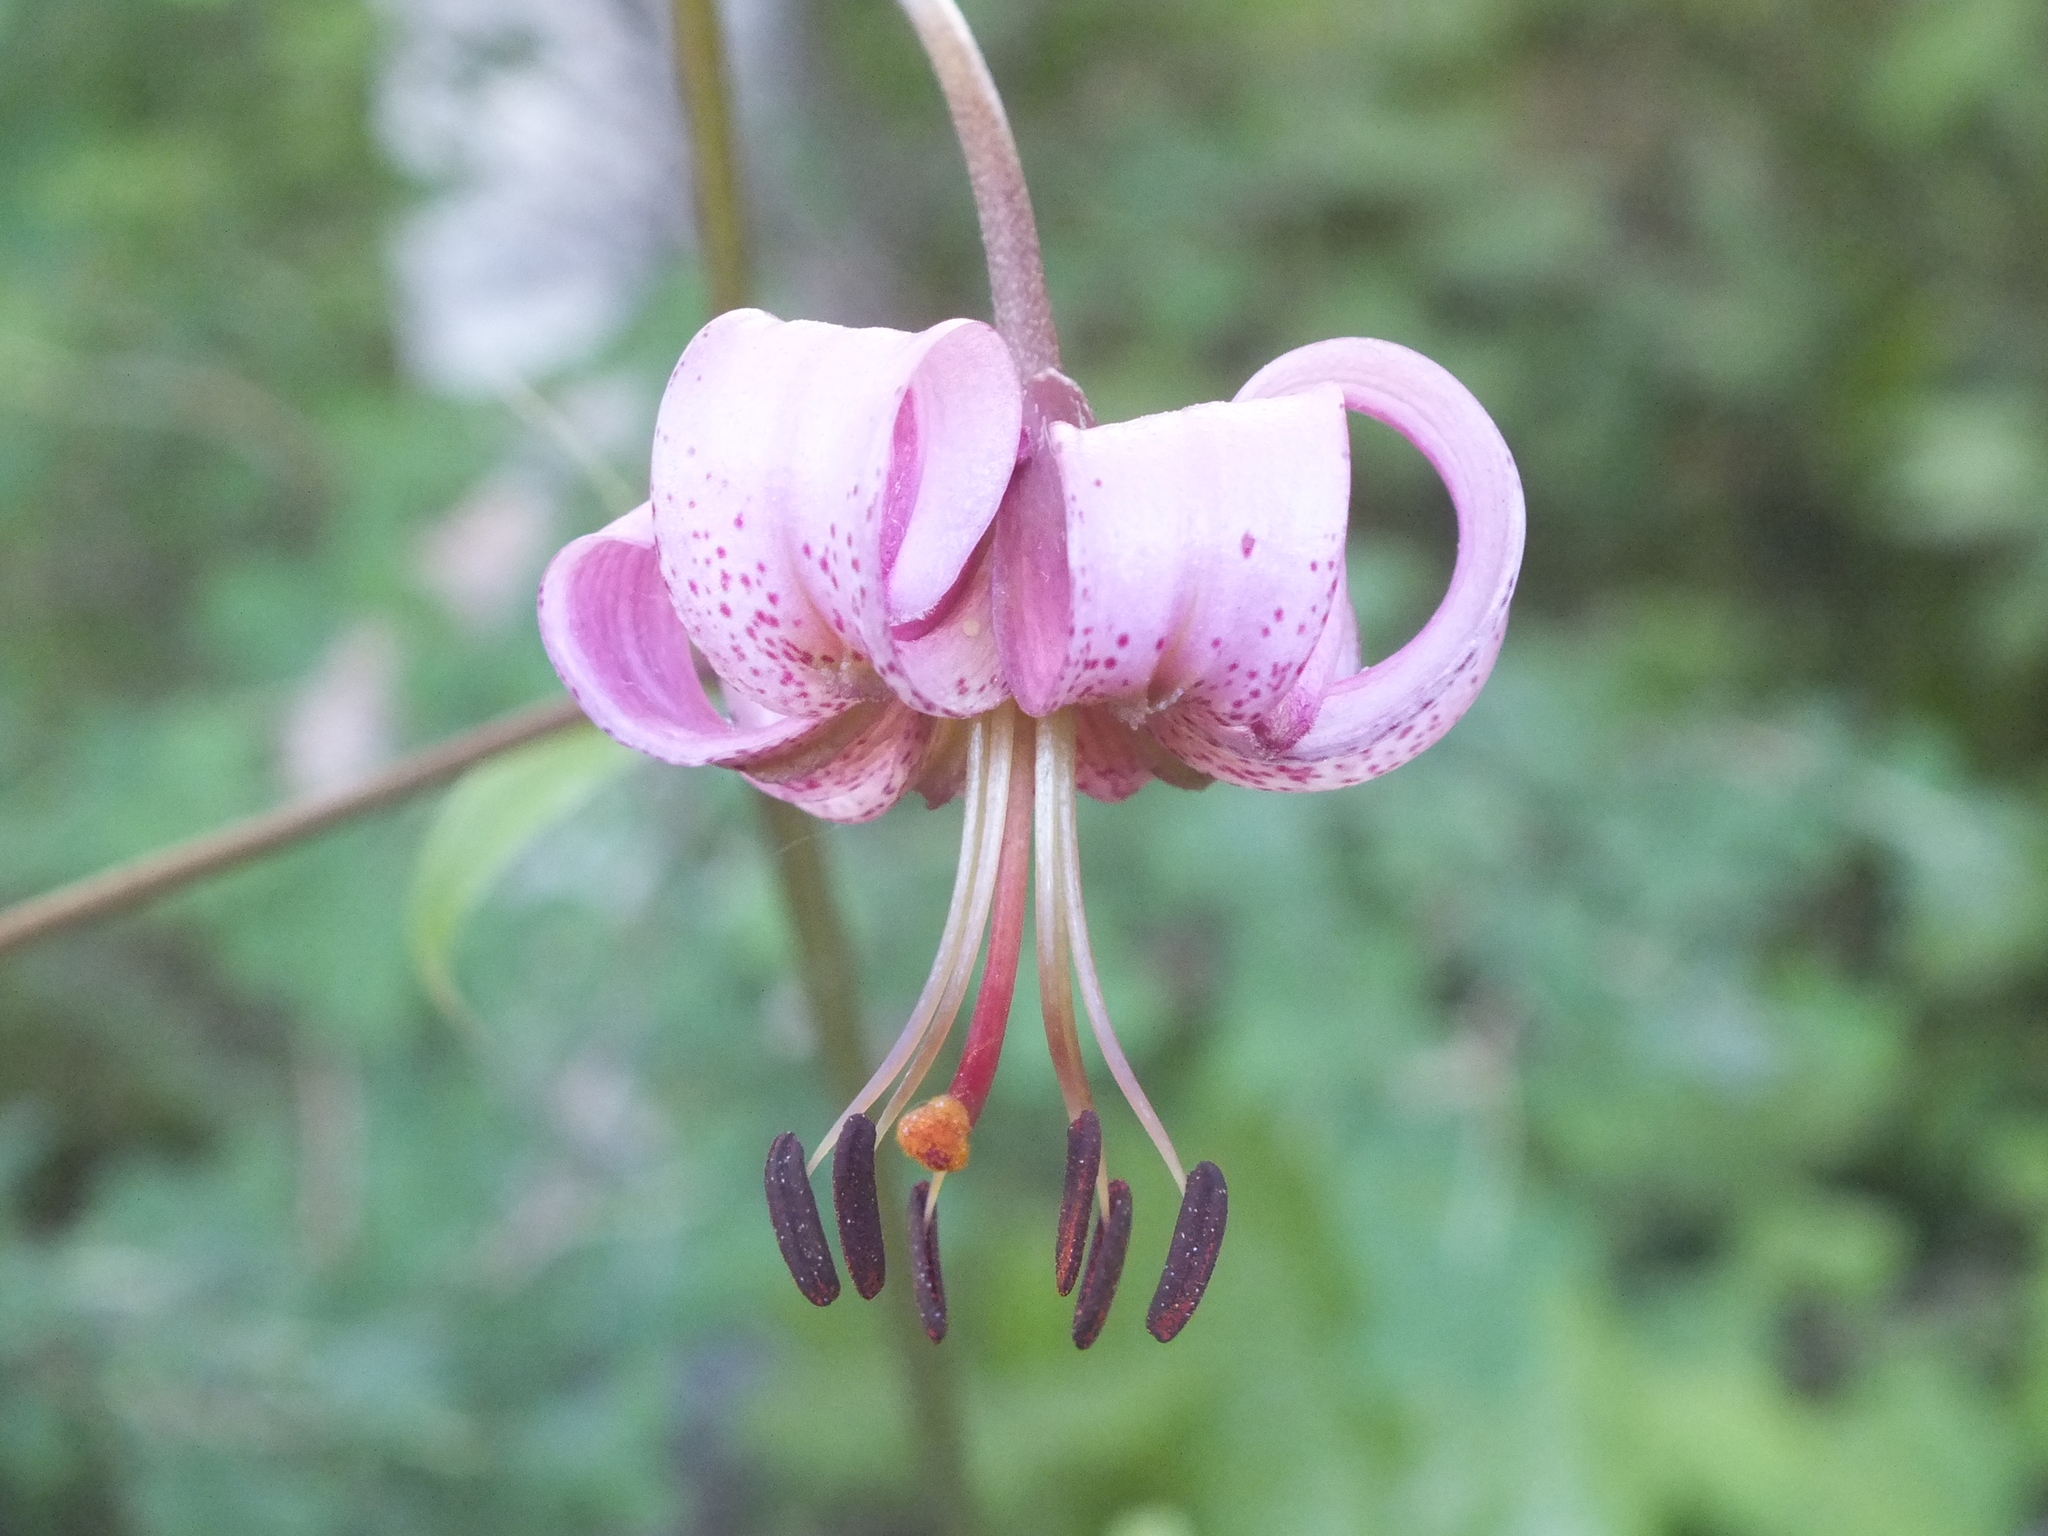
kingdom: Plantae
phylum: Tracheophyta
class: Liliopsida
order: Liliales
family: Liliaceae
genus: Lilium
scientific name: Lilium martagon
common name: Martagon lily
